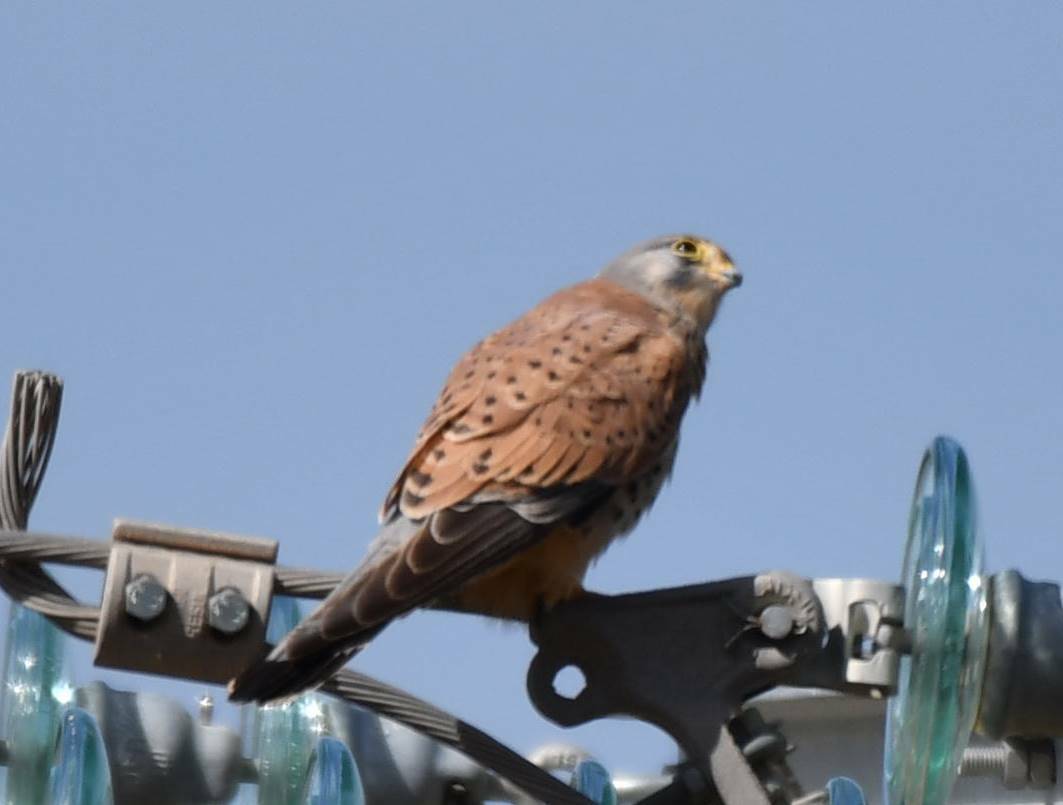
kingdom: Animalia
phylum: Chordata
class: Aves
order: Falconiformes
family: Falconidae
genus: Falco
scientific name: Falco tinnunculus
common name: Common kestrel
